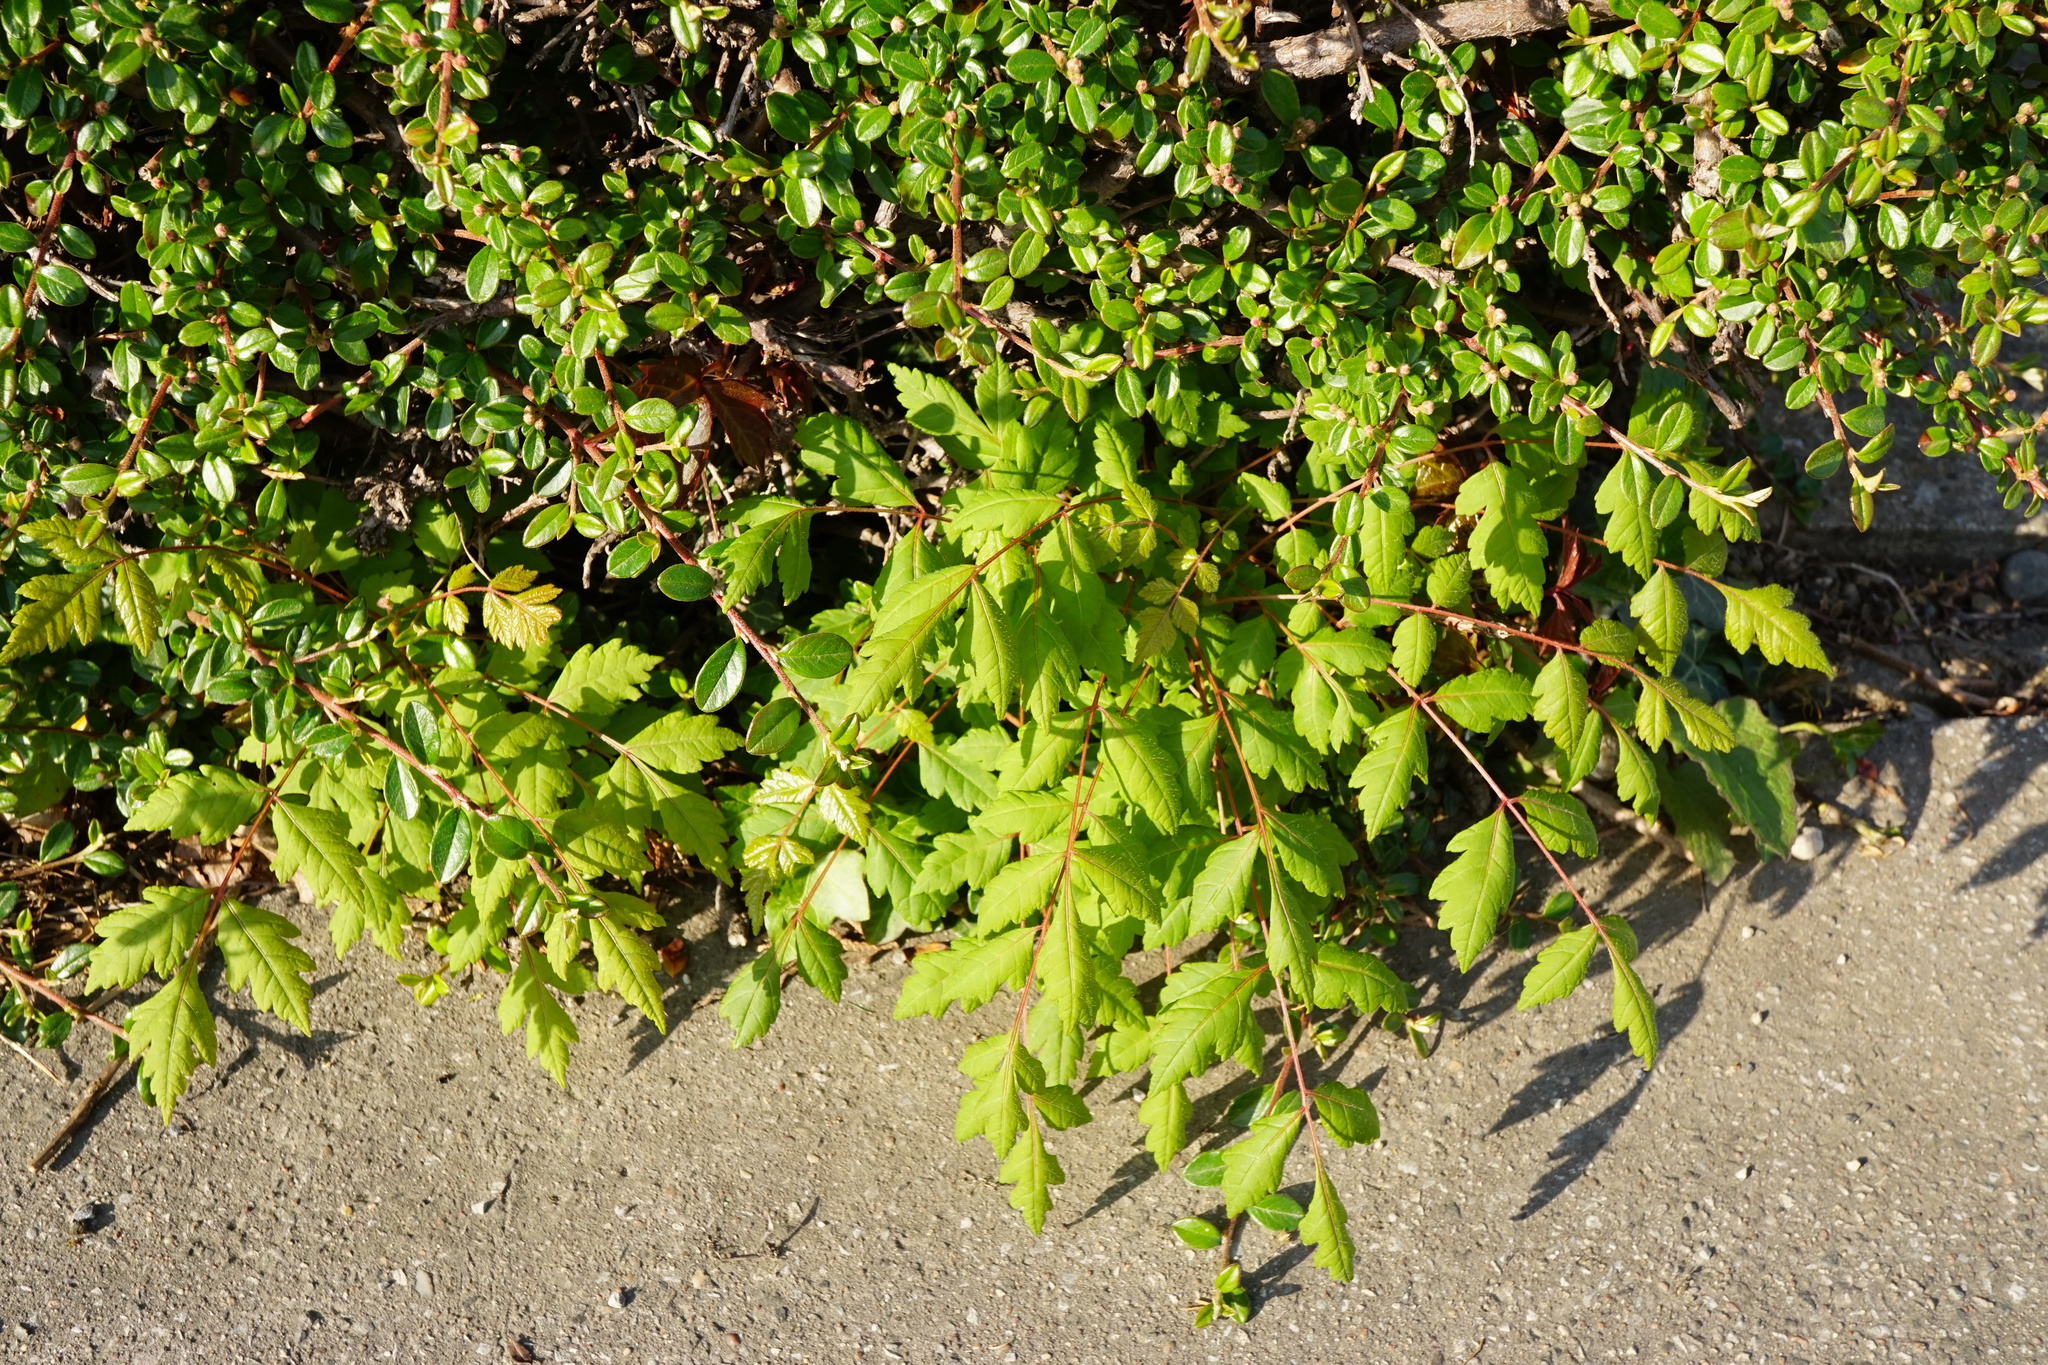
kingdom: Plantae
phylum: Tracheophyta
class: Magnoliopsida
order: Sapindales
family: Sapindaceae
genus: Koelreuteria
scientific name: Koelreuteria paniculata
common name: Pride-of-india
